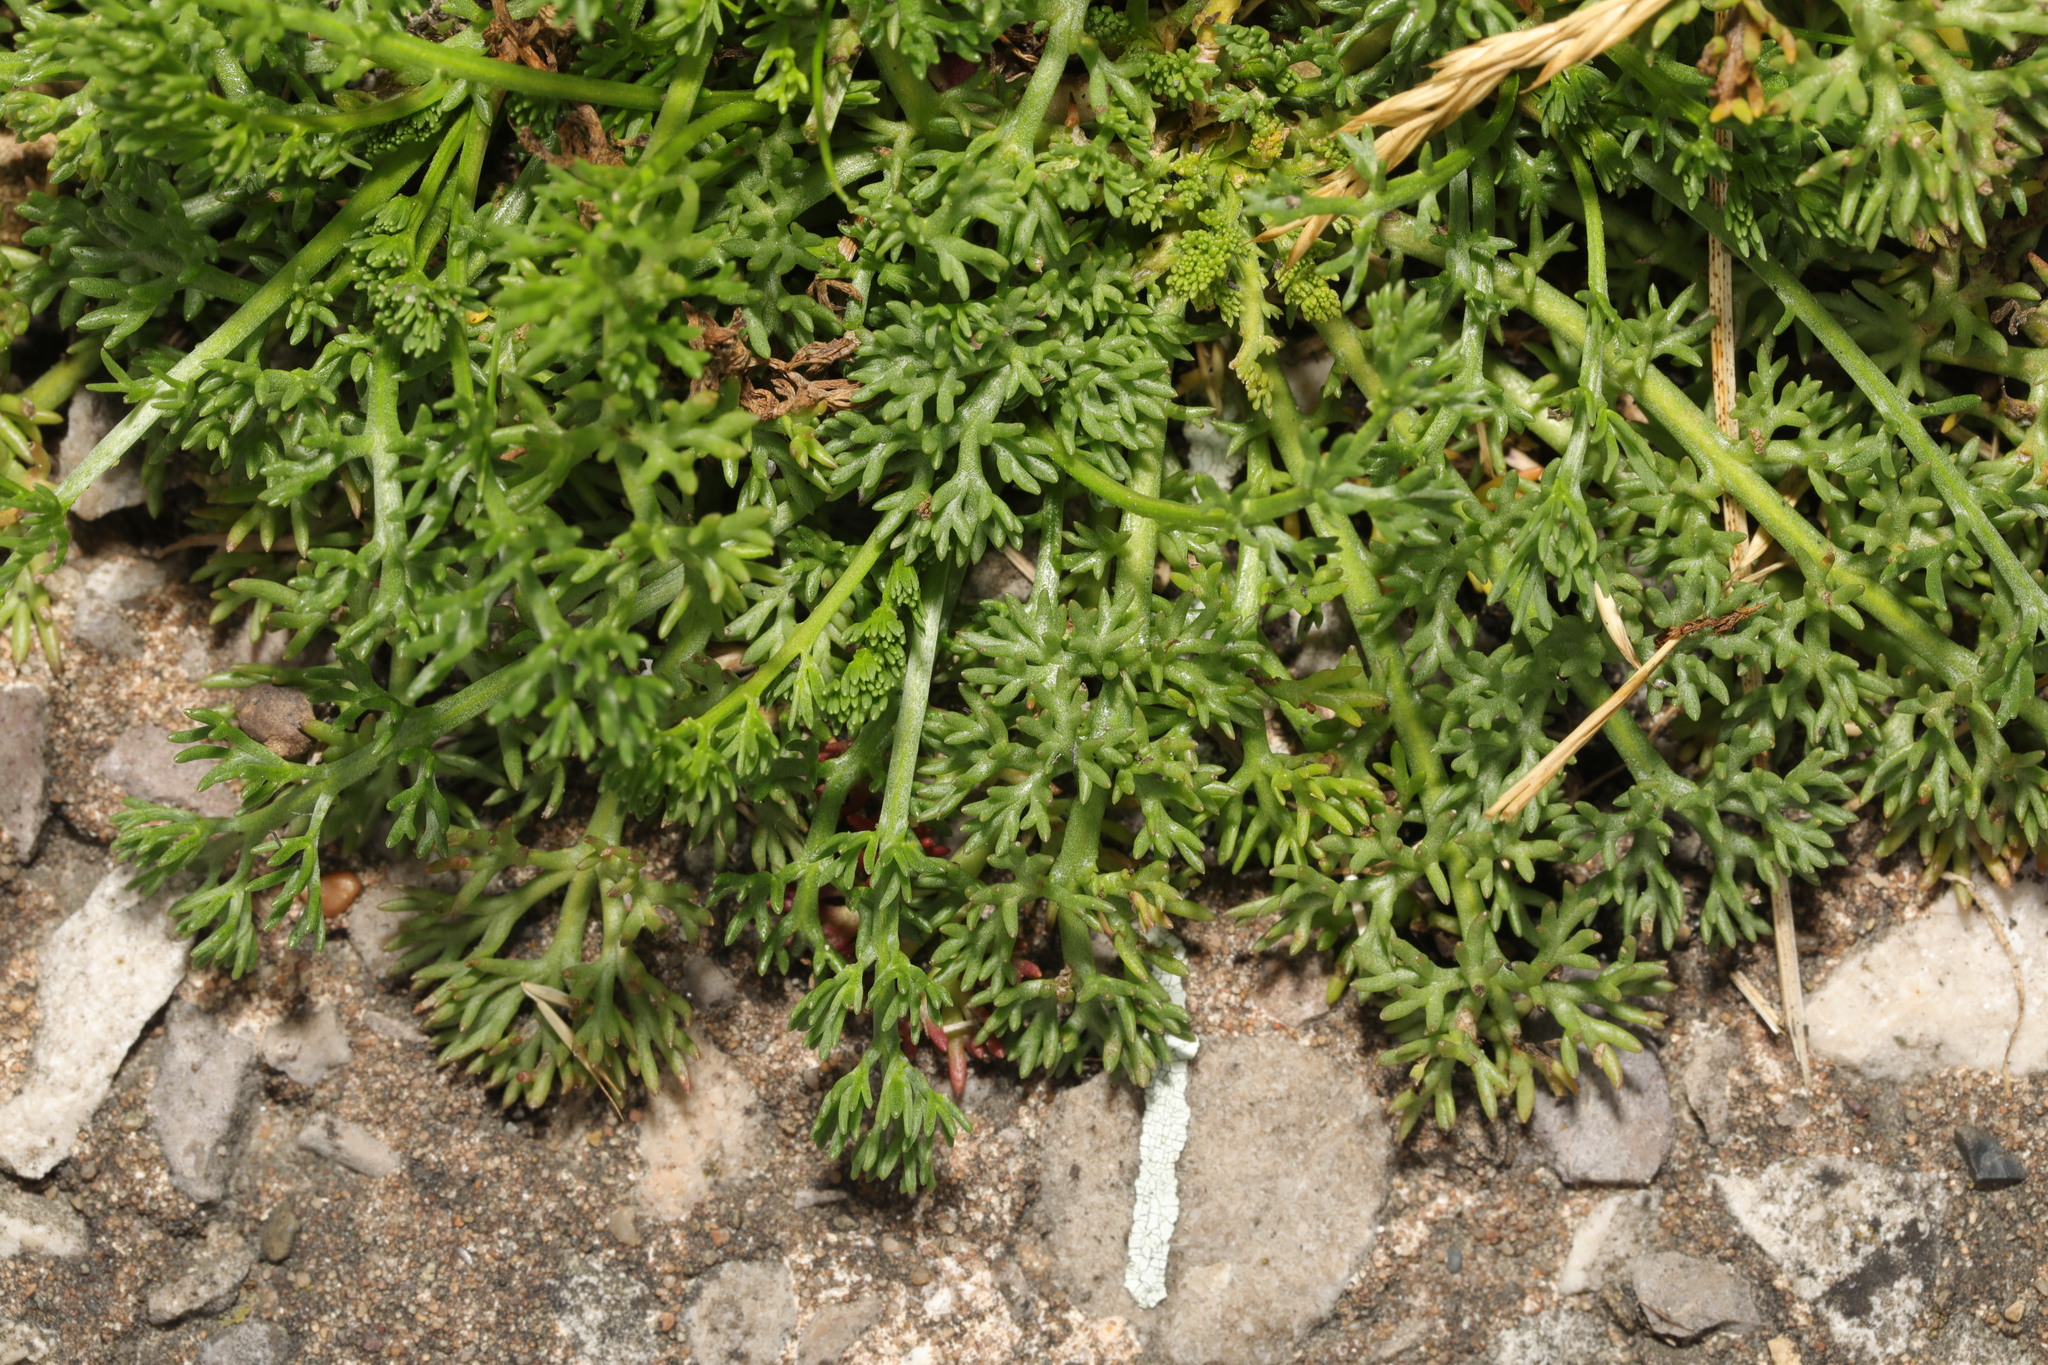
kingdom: Plantae
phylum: Tracheophyta
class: Magnoliopsida
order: Asterales
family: Asteraceae
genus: Tripleurospermum
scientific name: Tripleurospermum maritimum
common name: Sea mayweed
